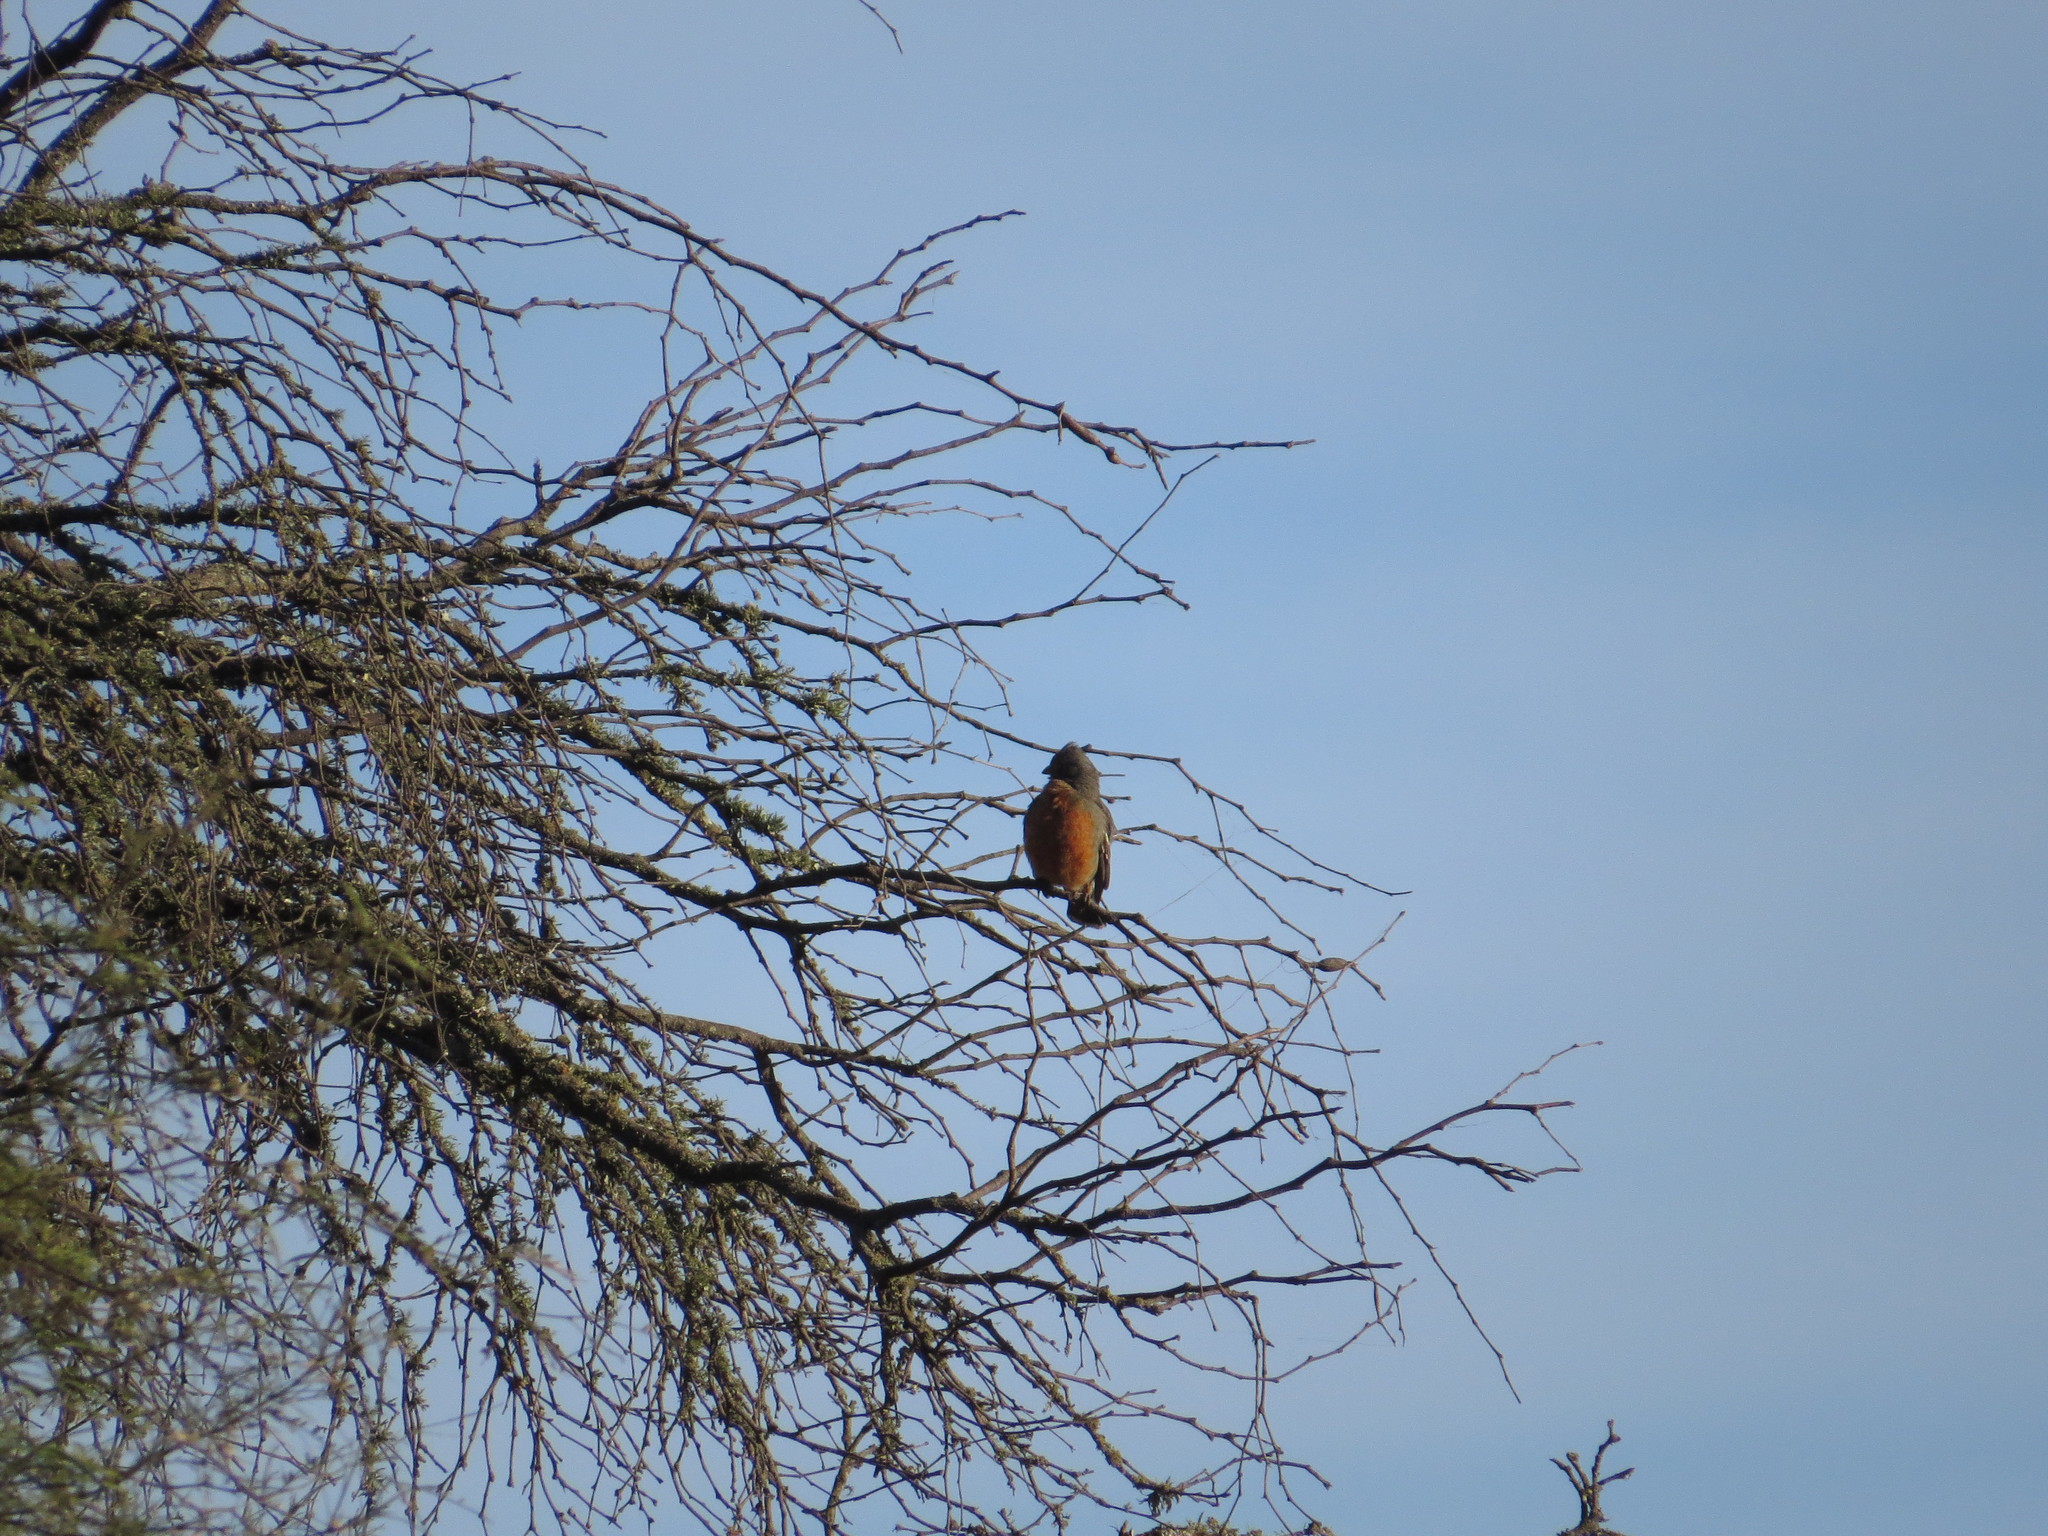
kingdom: Animalia
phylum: Chordata
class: Aves
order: Passeriformes
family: Cotingidae
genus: Phytotoma
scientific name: Phytotoma rutila
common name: White-tipped plantcutter
